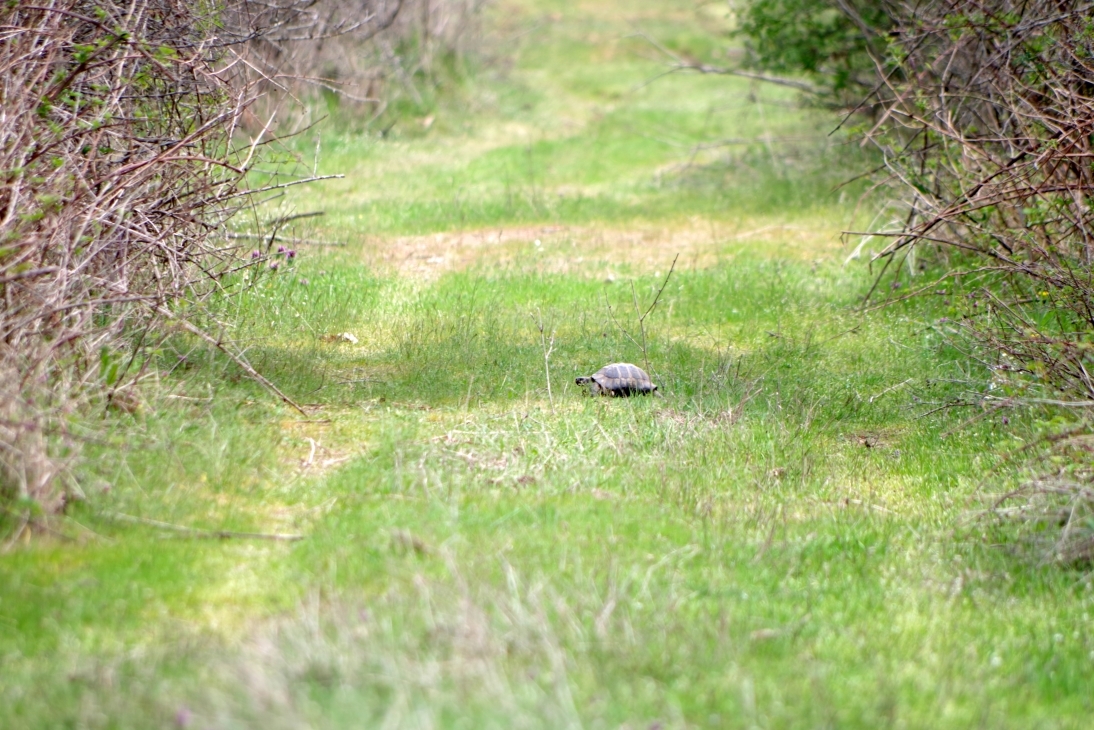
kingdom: Animalia
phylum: Chordata
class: Testudines
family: Testudinidae
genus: Testudo
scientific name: Testudo hermanni
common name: Hermann's tortoise
